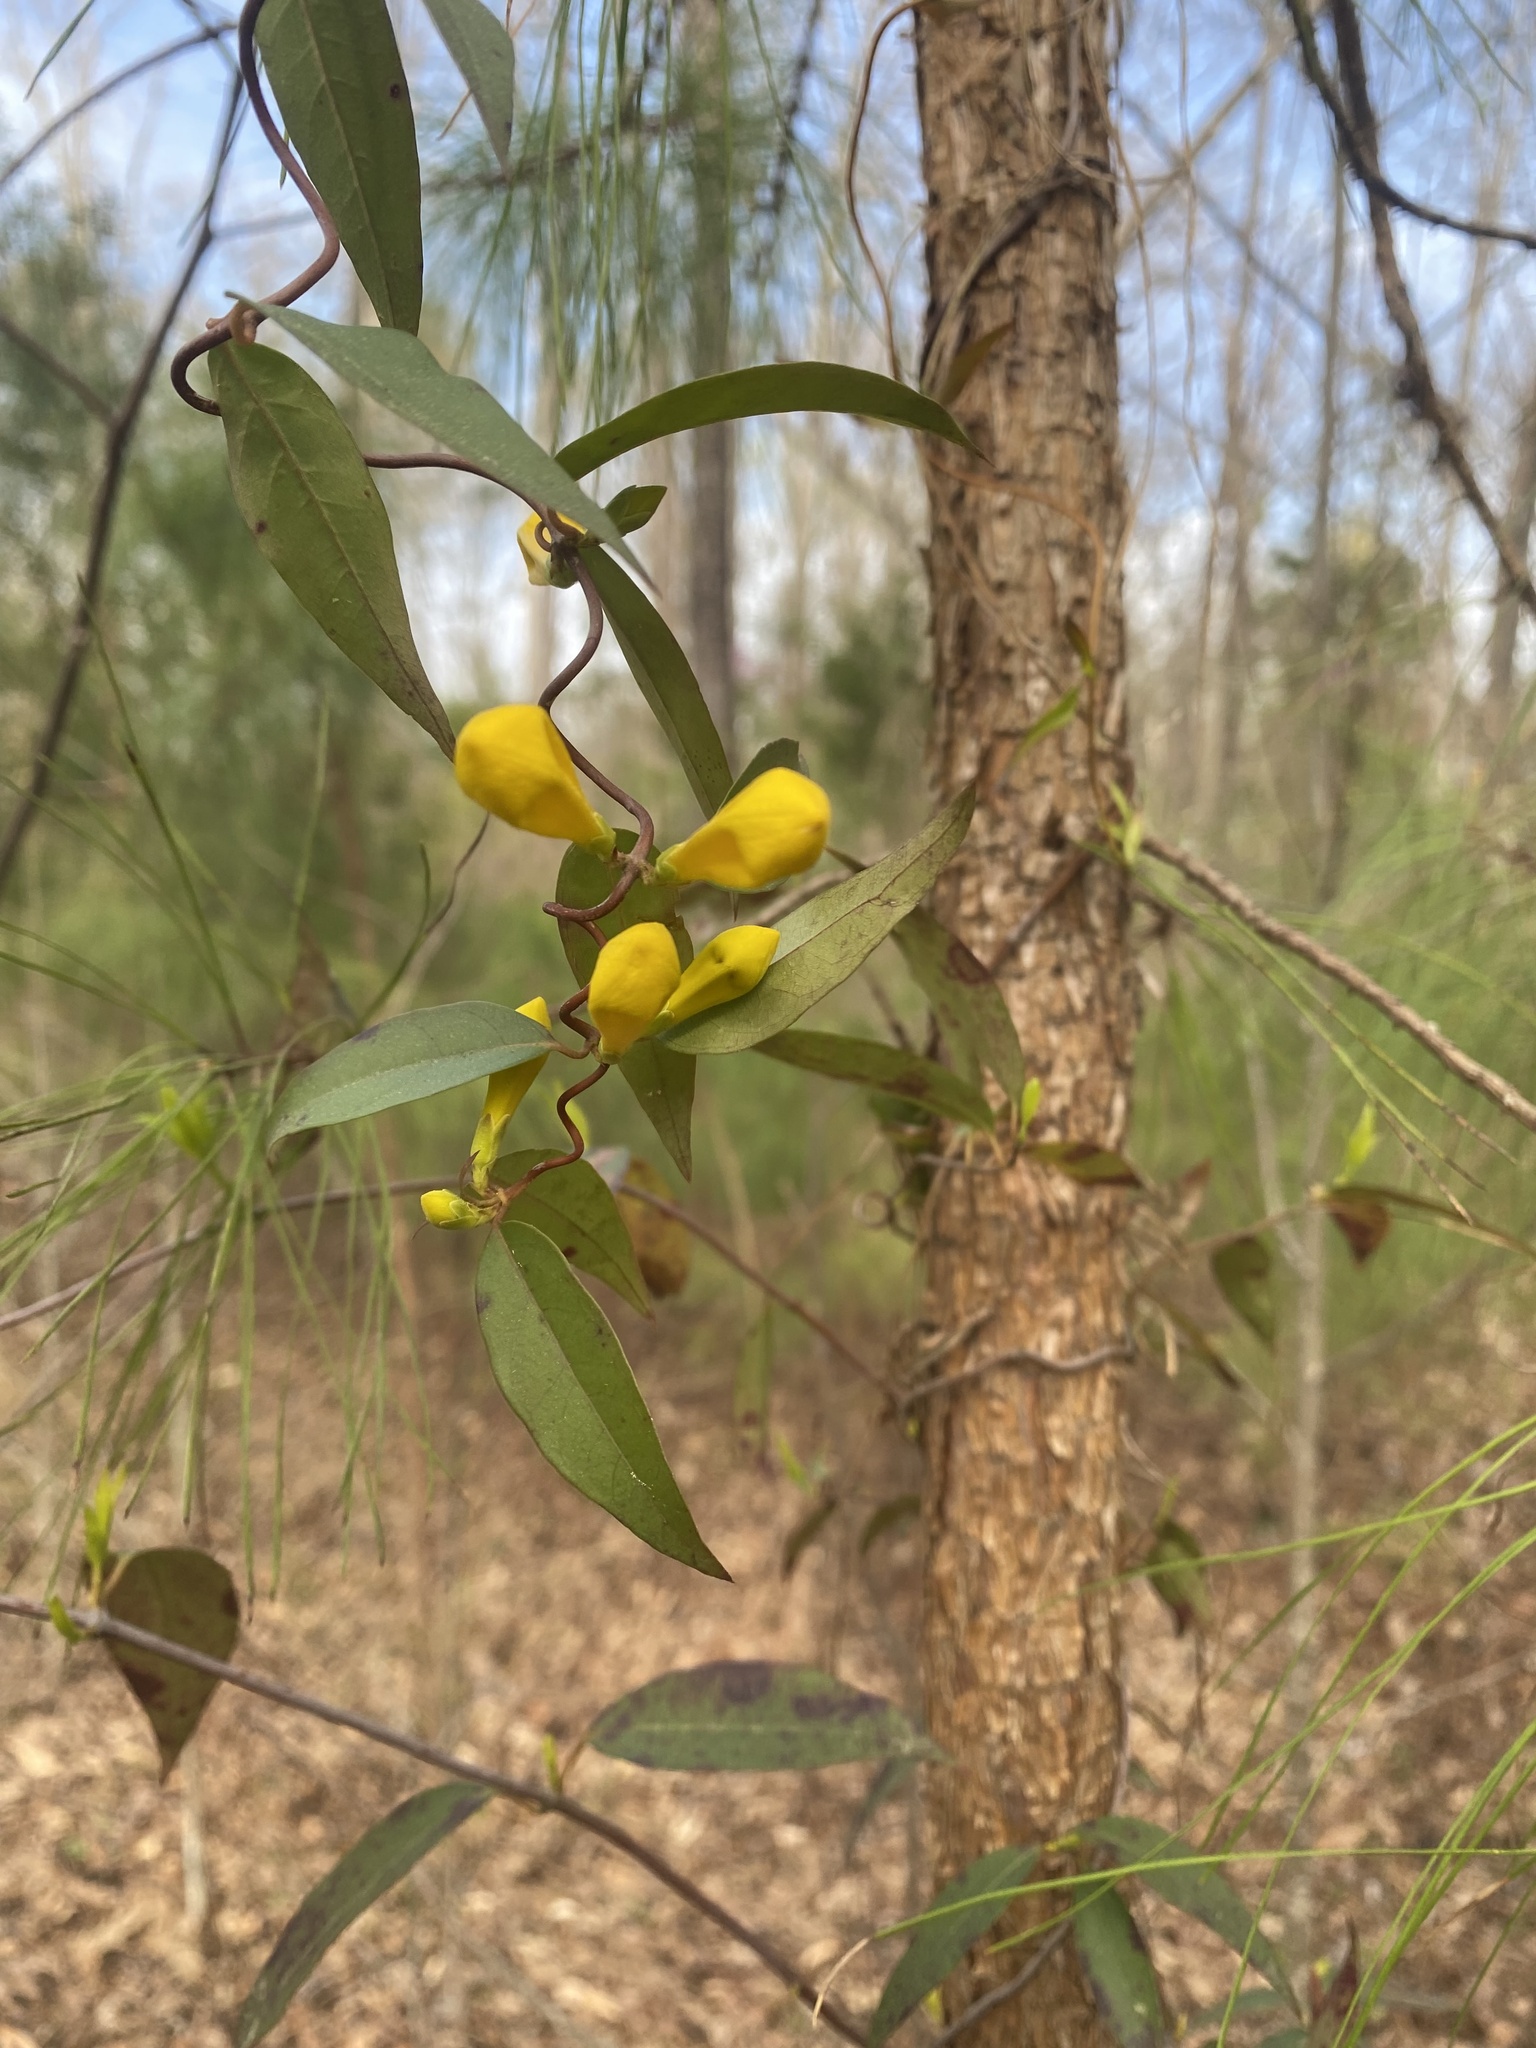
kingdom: Plantae
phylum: Tracheophyta
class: Magnoliopsida
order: Gentianales
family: Gelsemiaceae
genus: Gelsemium
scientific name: Gelsemium sempervirens
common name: Carolina-jasmine
